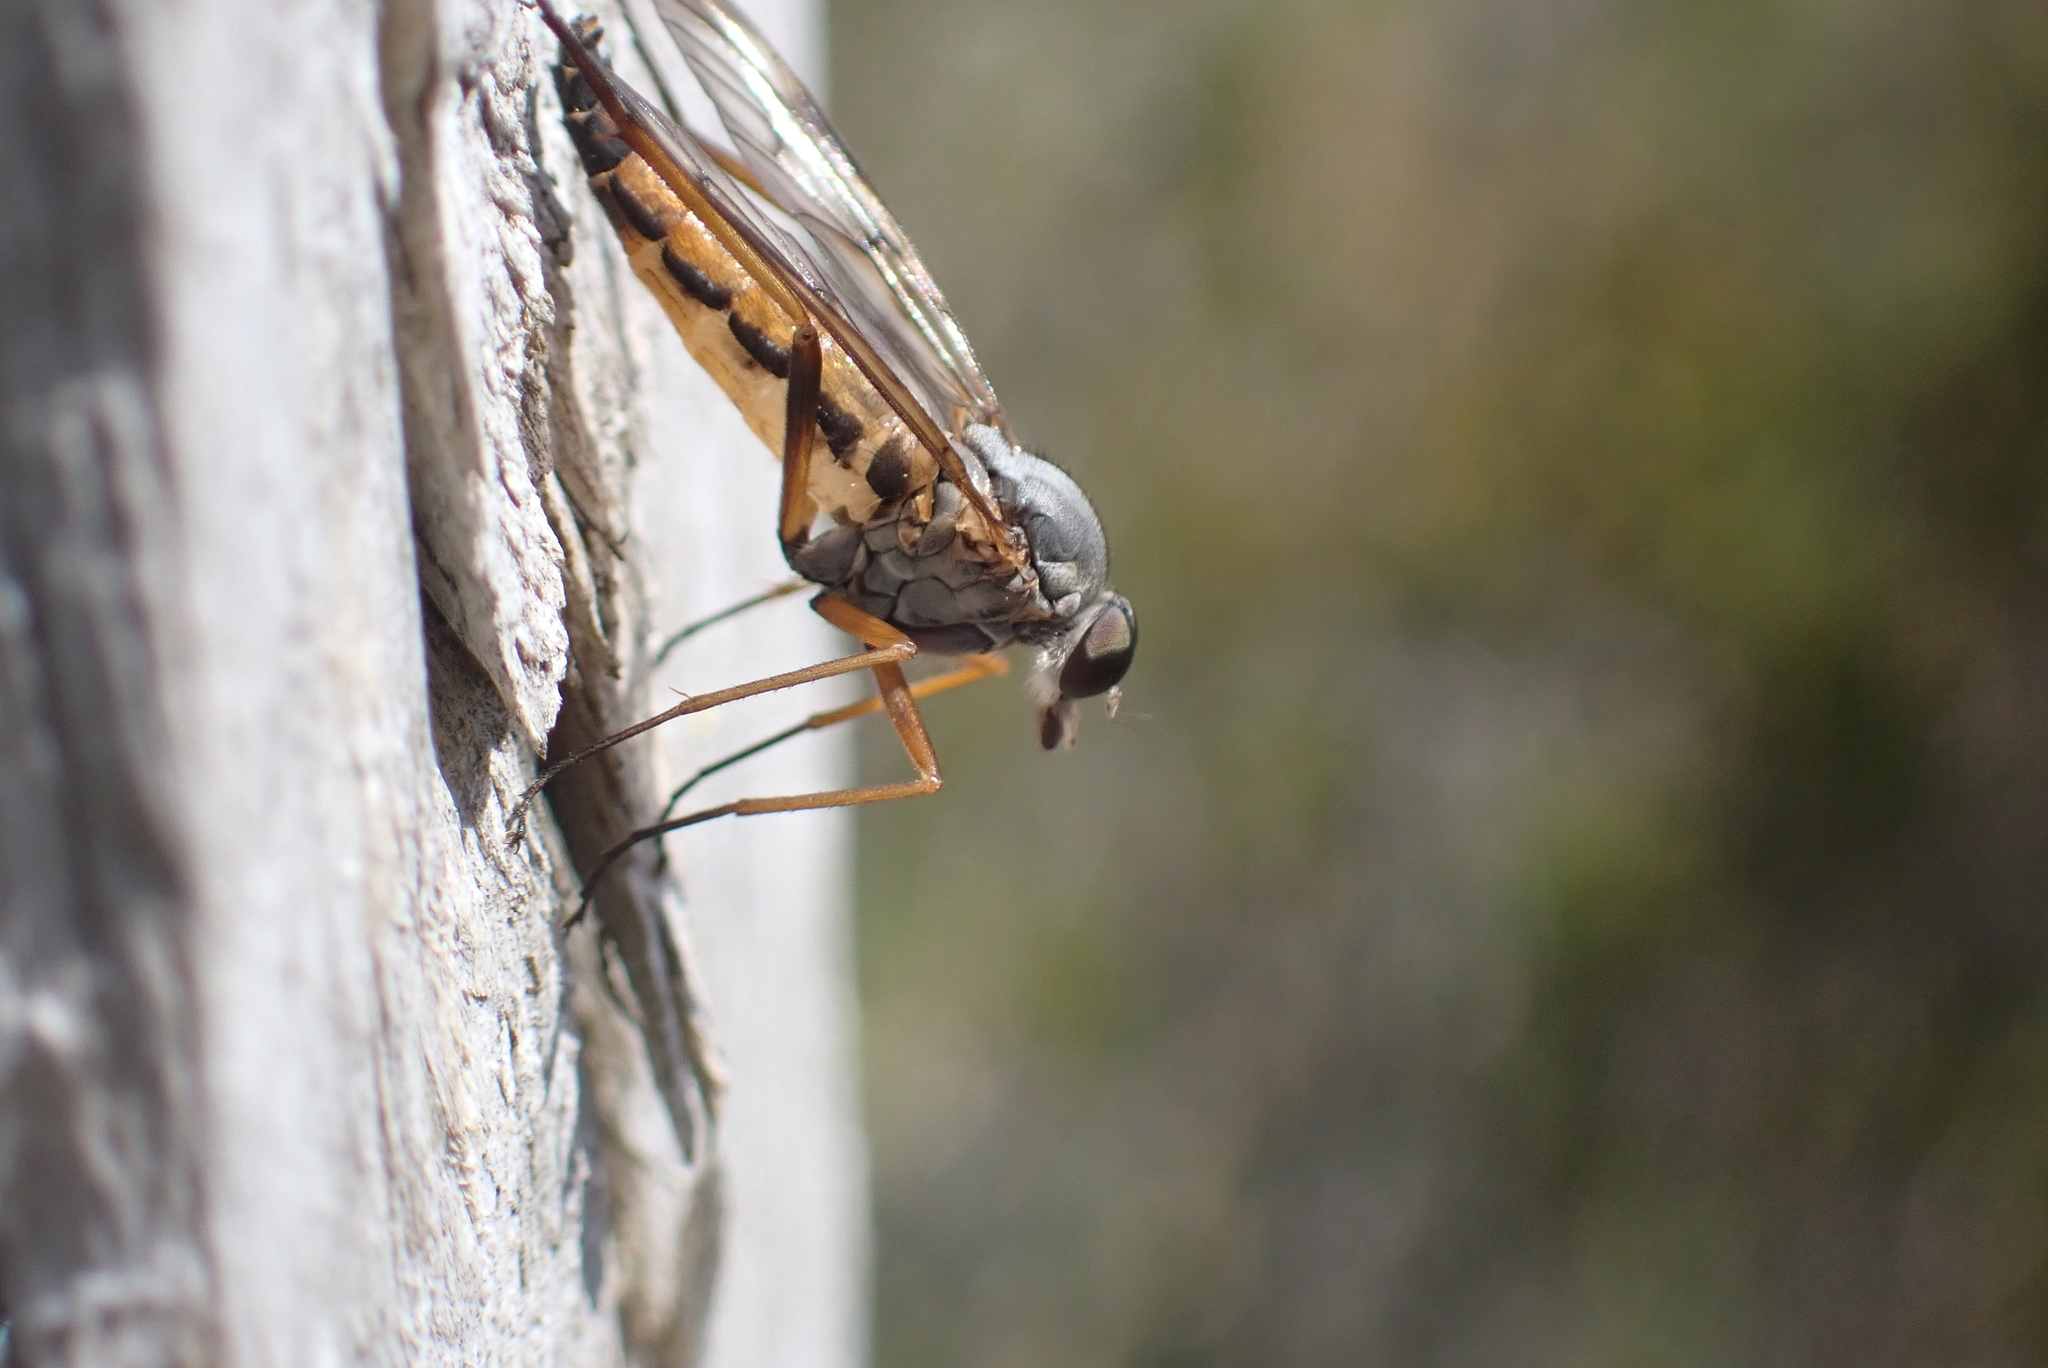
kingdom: Animalia
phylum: Arthropoda
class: Insecta
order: Diptera
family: Rhagionidae
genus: Rhagio
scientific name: Rhagio scolopacea
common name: Downlooker snipefly
